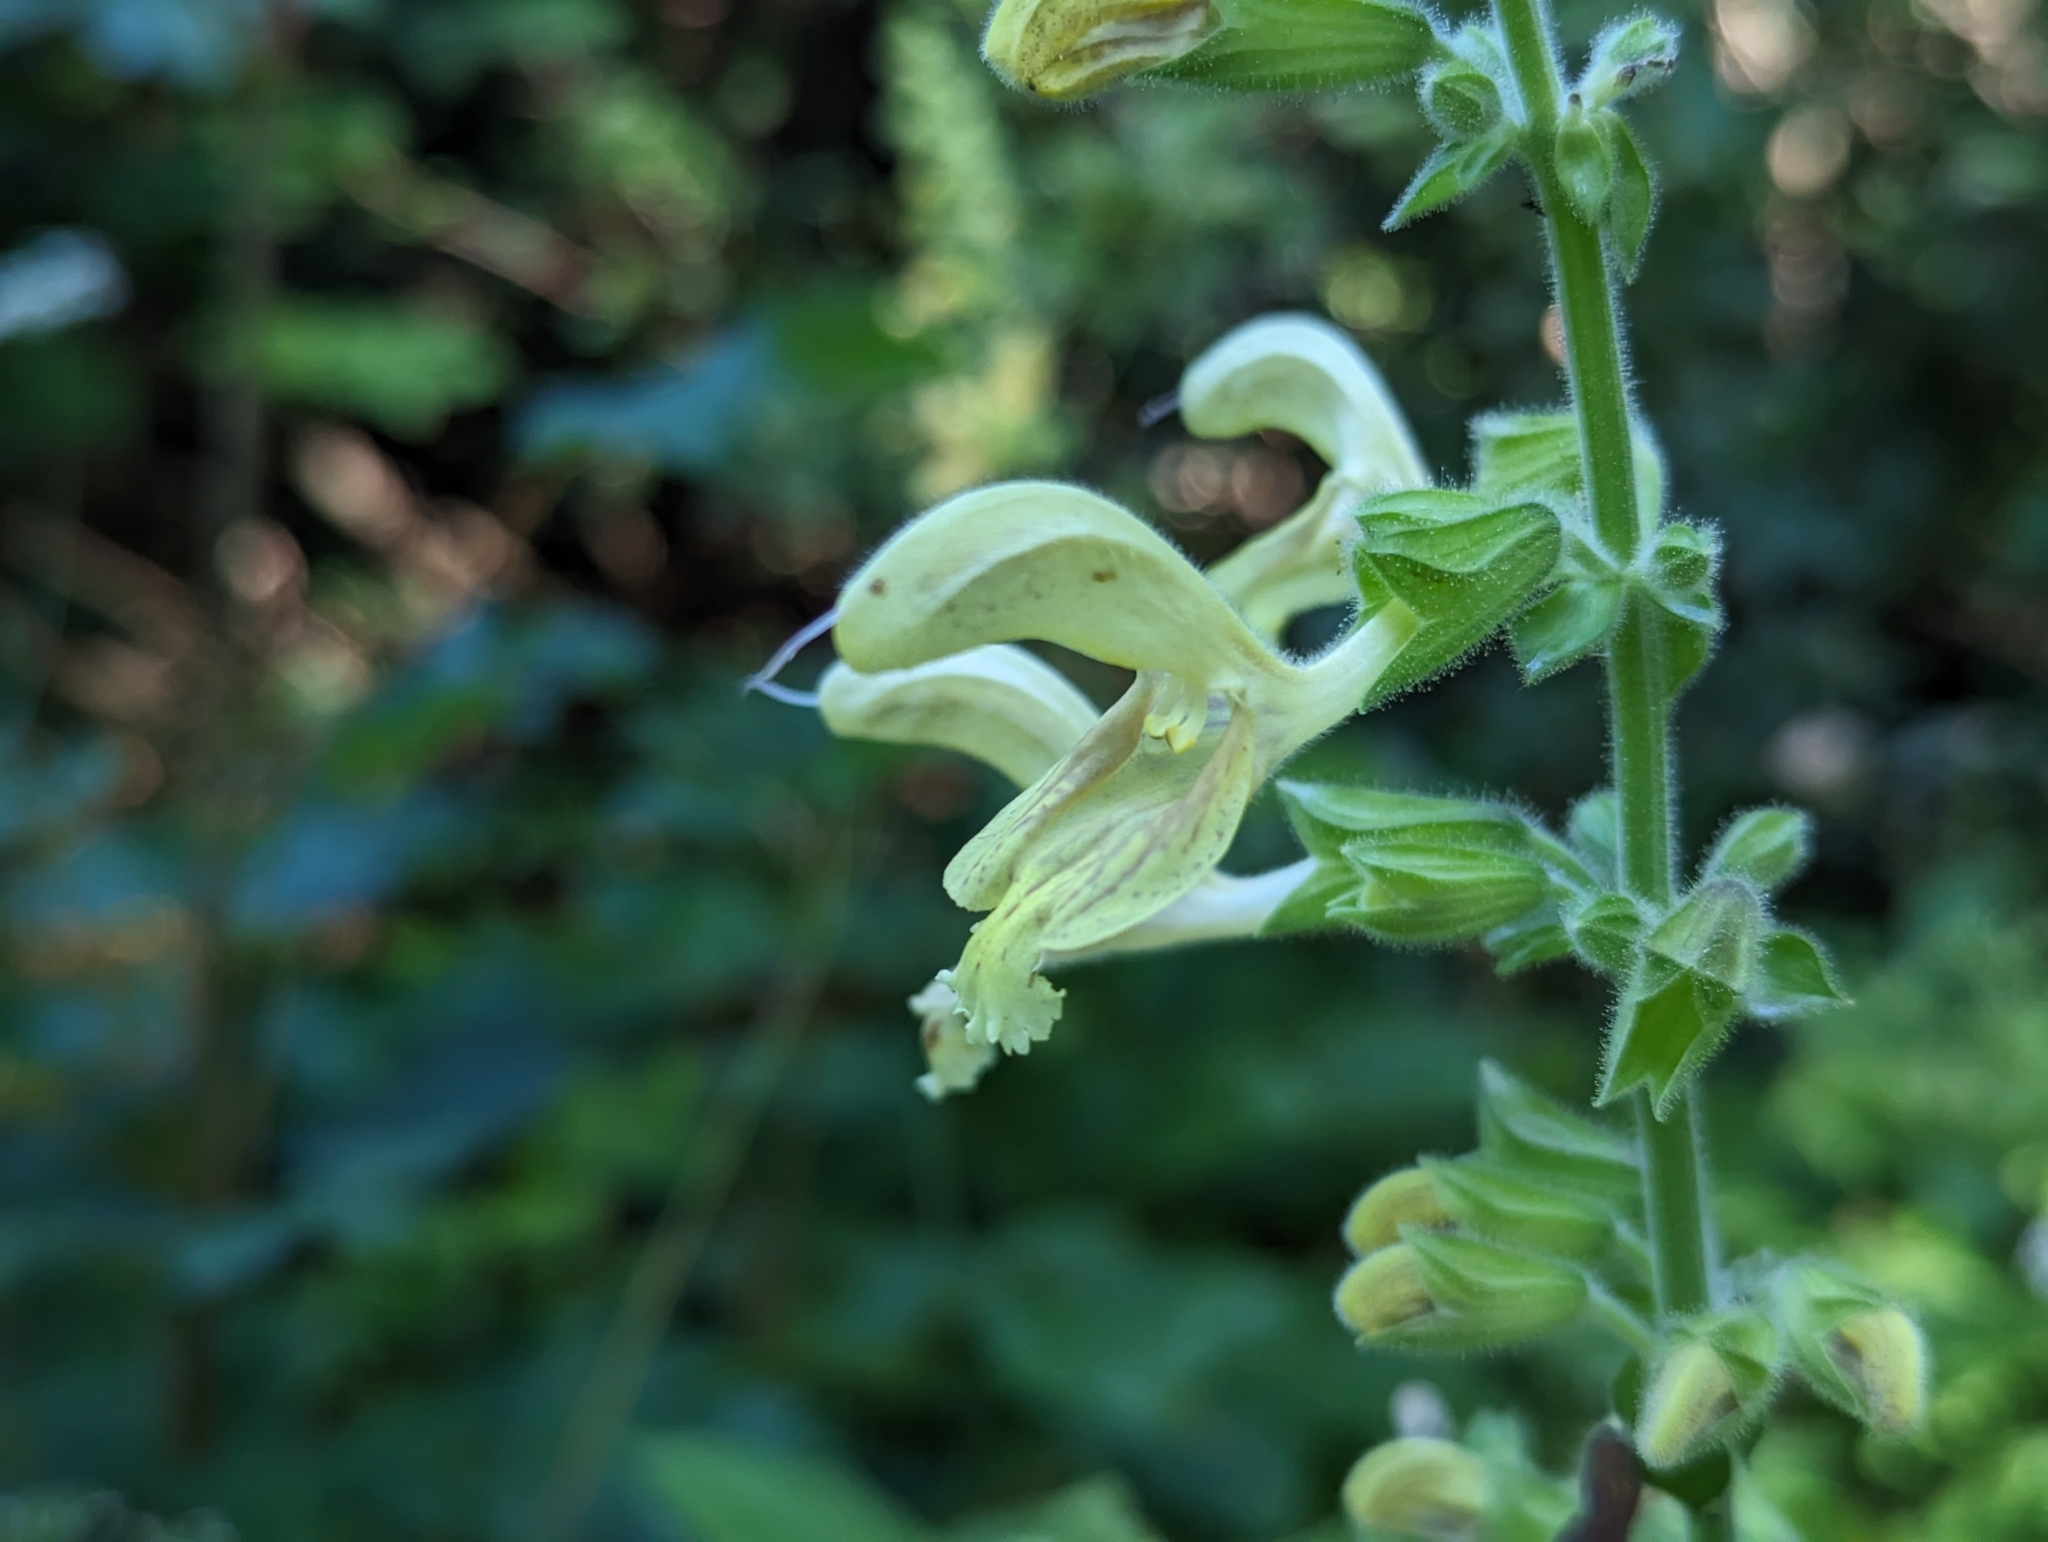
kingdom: Plantae
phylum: Tracheophyta
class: Magnoliopsida
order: Lamiales
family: Lamiaceae
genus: Salvia
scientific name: Salvia glutinosa
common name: Sticky clary
